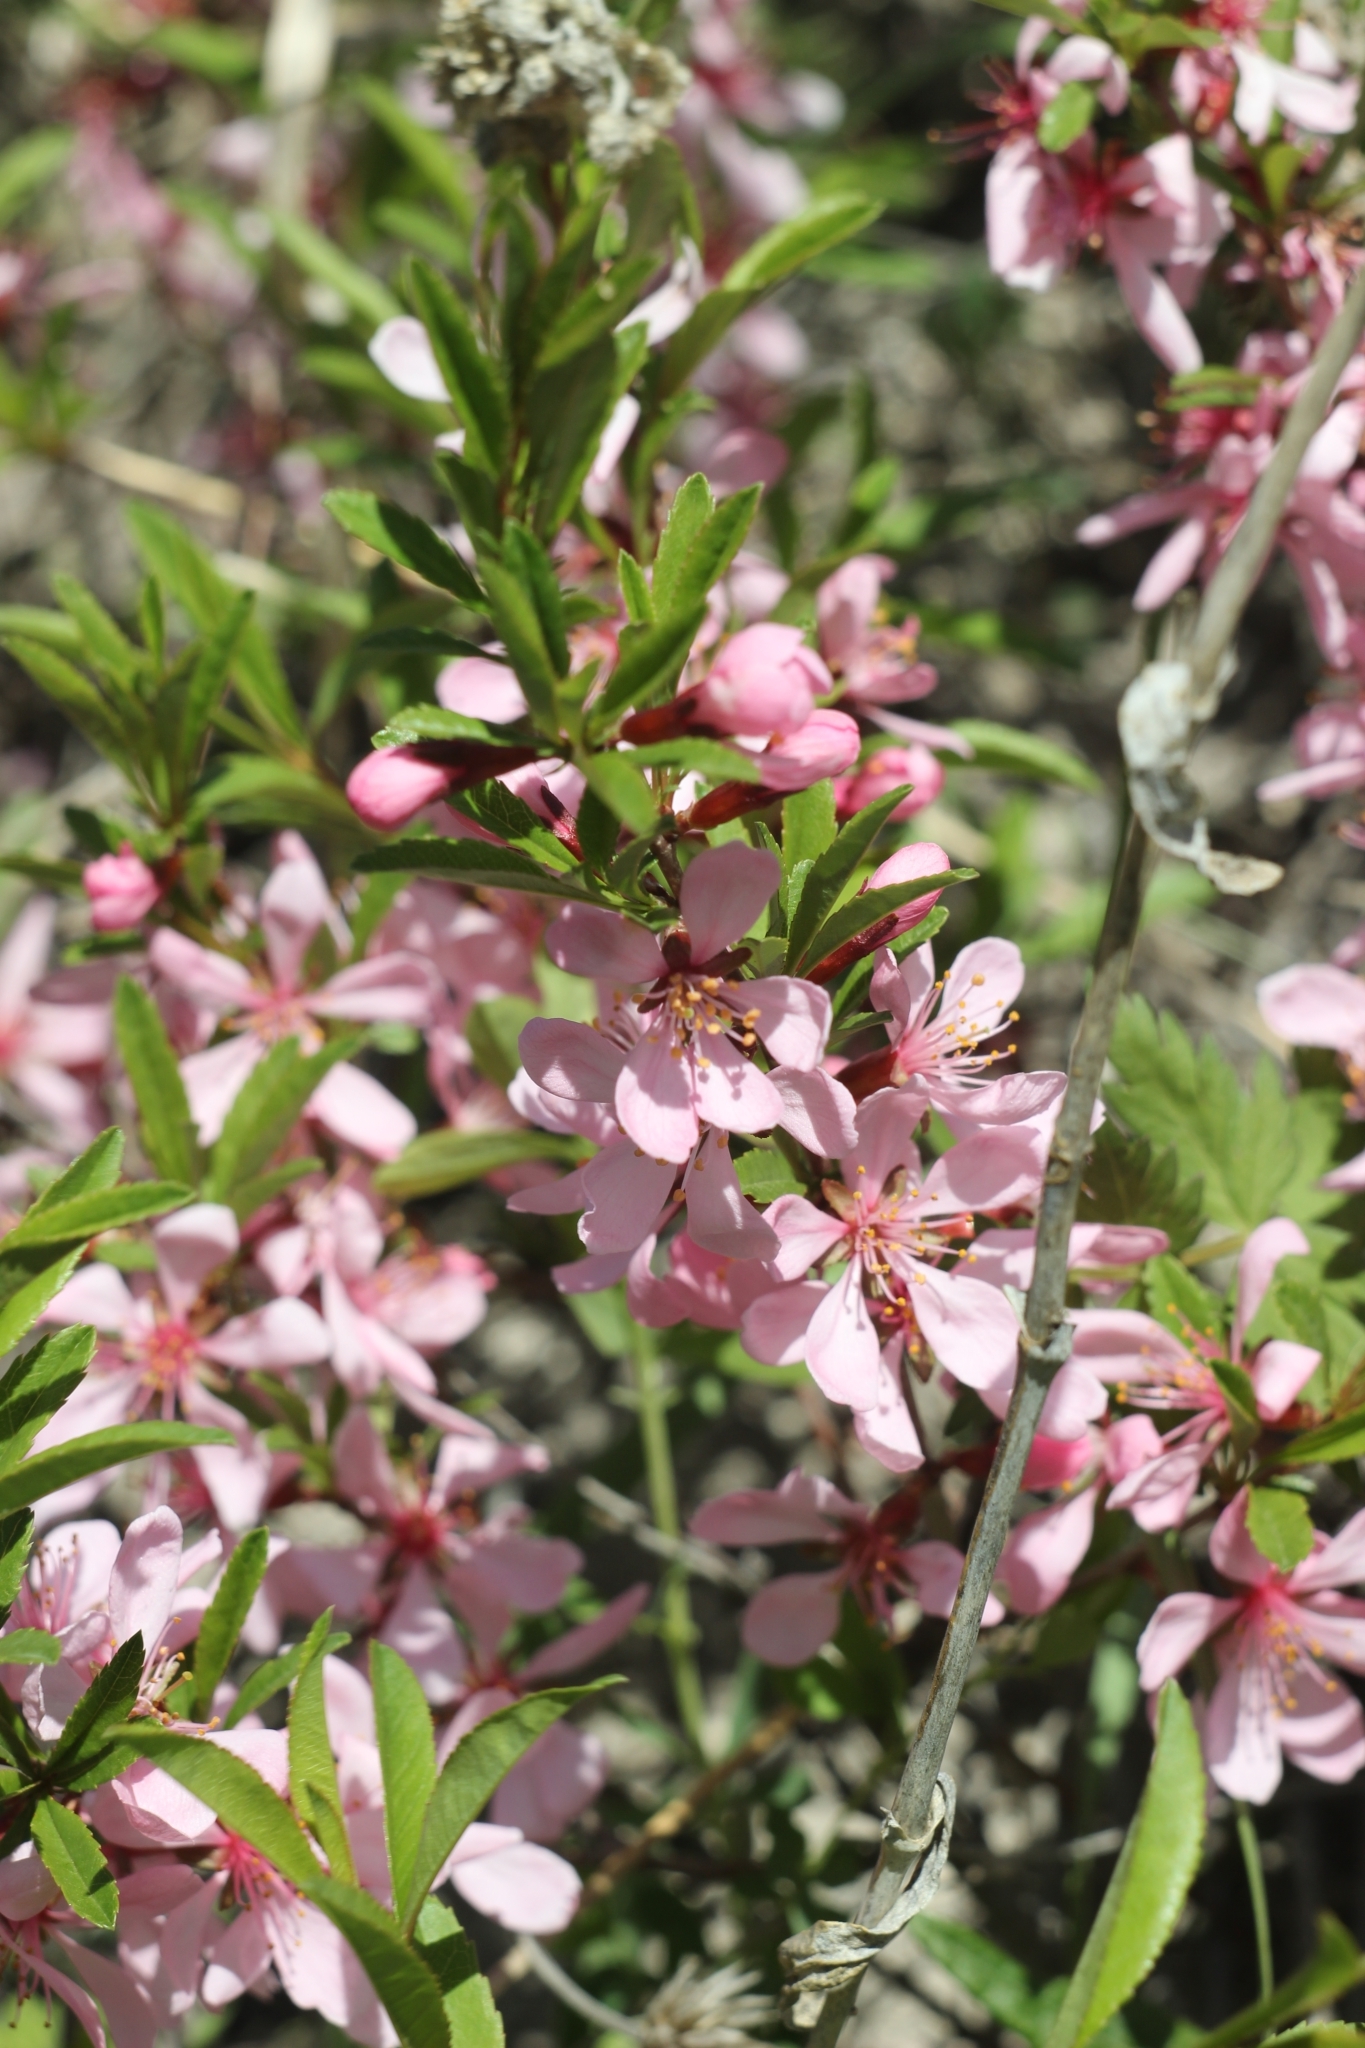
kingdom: Plantae
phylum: Tracheophyta
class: Magnoliopsida
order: Rosales
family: Rosaceae
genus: Prunus
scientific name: Prunus tenella
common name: Dwarf russian almond
